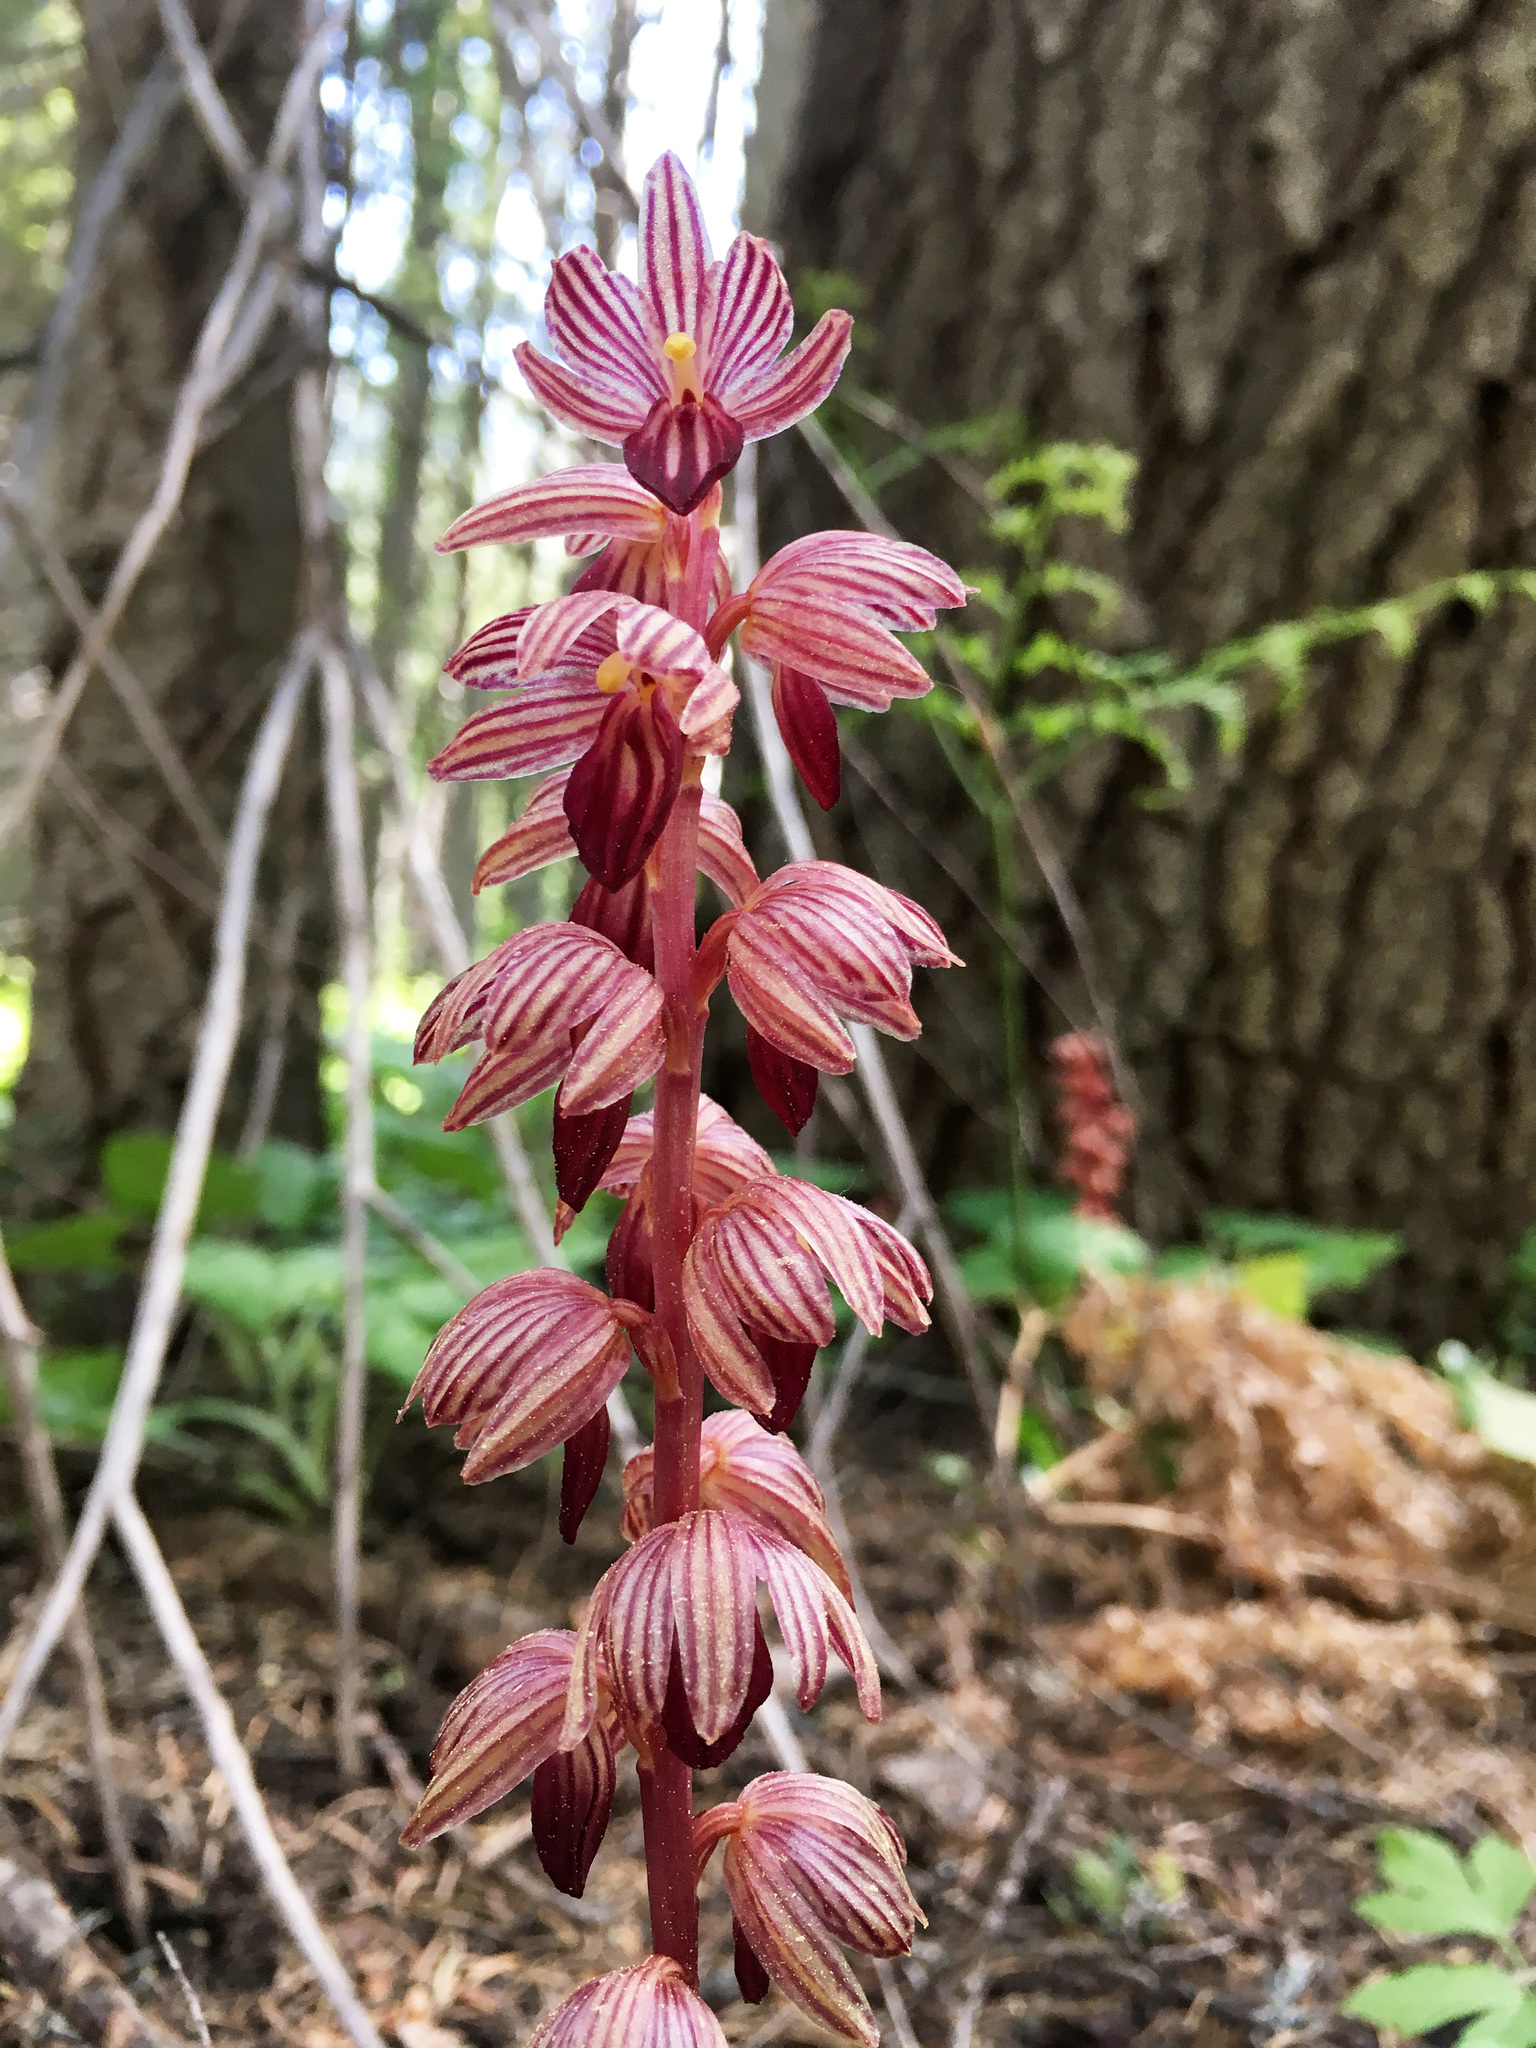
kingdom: Plantae
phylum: Tracheophyta
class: Liliopsida
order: Asparagales
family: Orchidaceae
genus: Corallorhiza
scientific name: Corallorhiza striata
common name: Hooded coralroot
